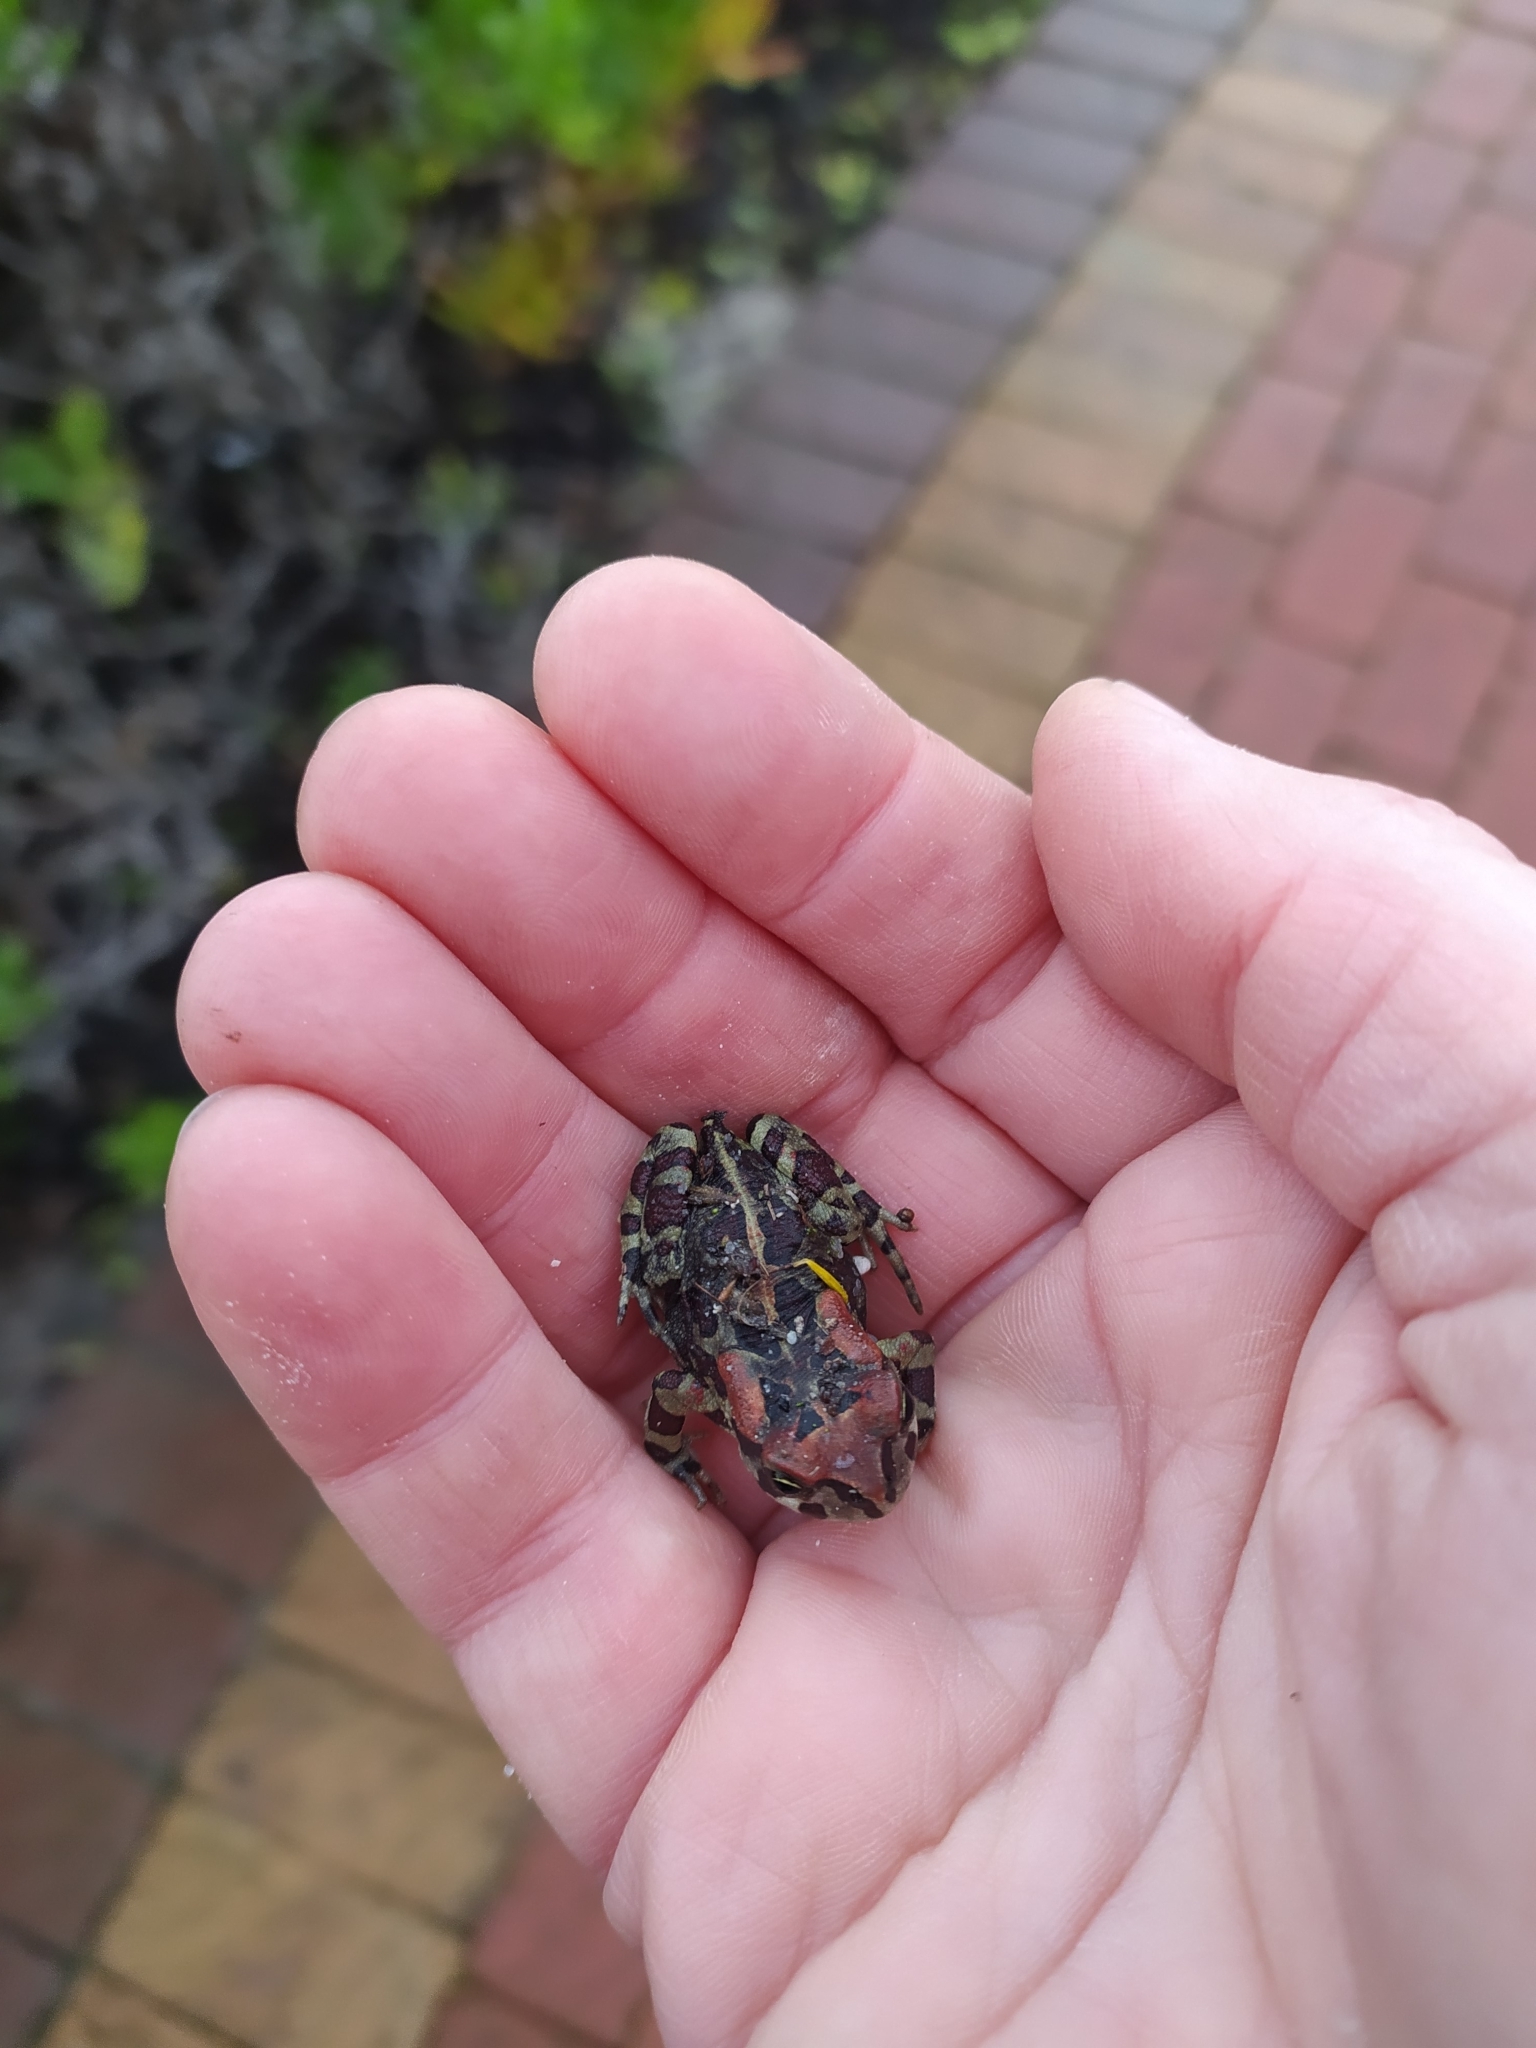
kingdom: Animalia
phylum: Chordata
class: Amphibia
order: Anura
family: Bufonidae
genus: Sclerophrys
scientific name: Sclerophrys pantherina
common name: Panther toad
